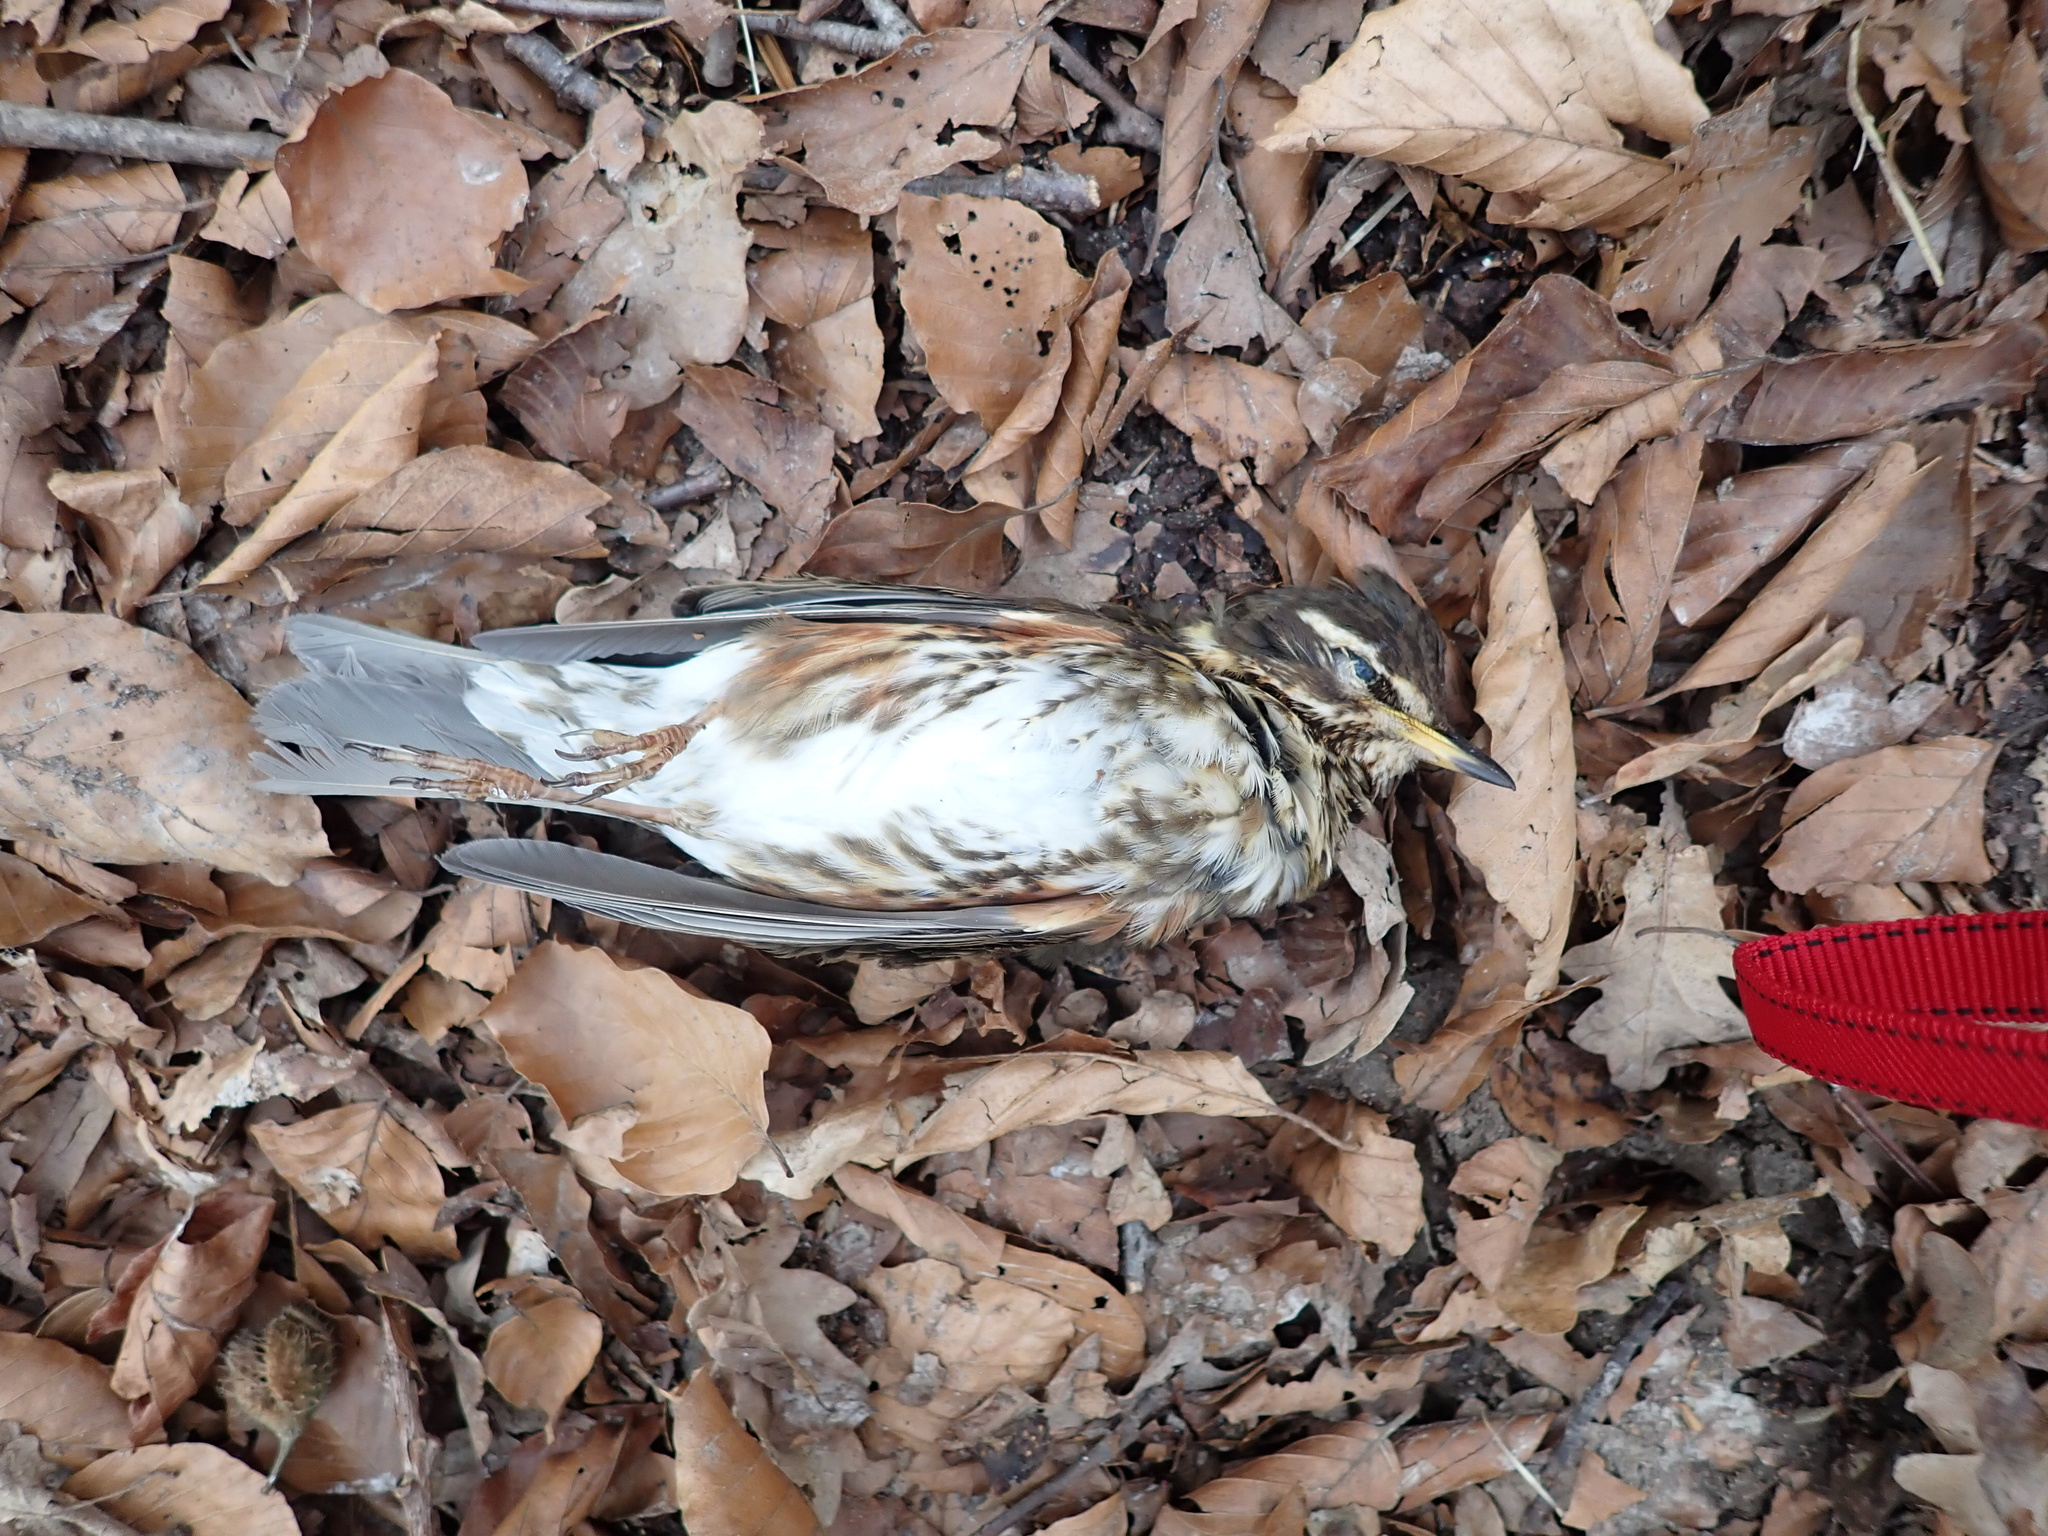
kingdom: Animalia
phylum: Chordata
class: Aves
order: Passeriformes
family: Turdidae
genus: Turdus
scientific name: Turdus iliacus
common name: Redwing
